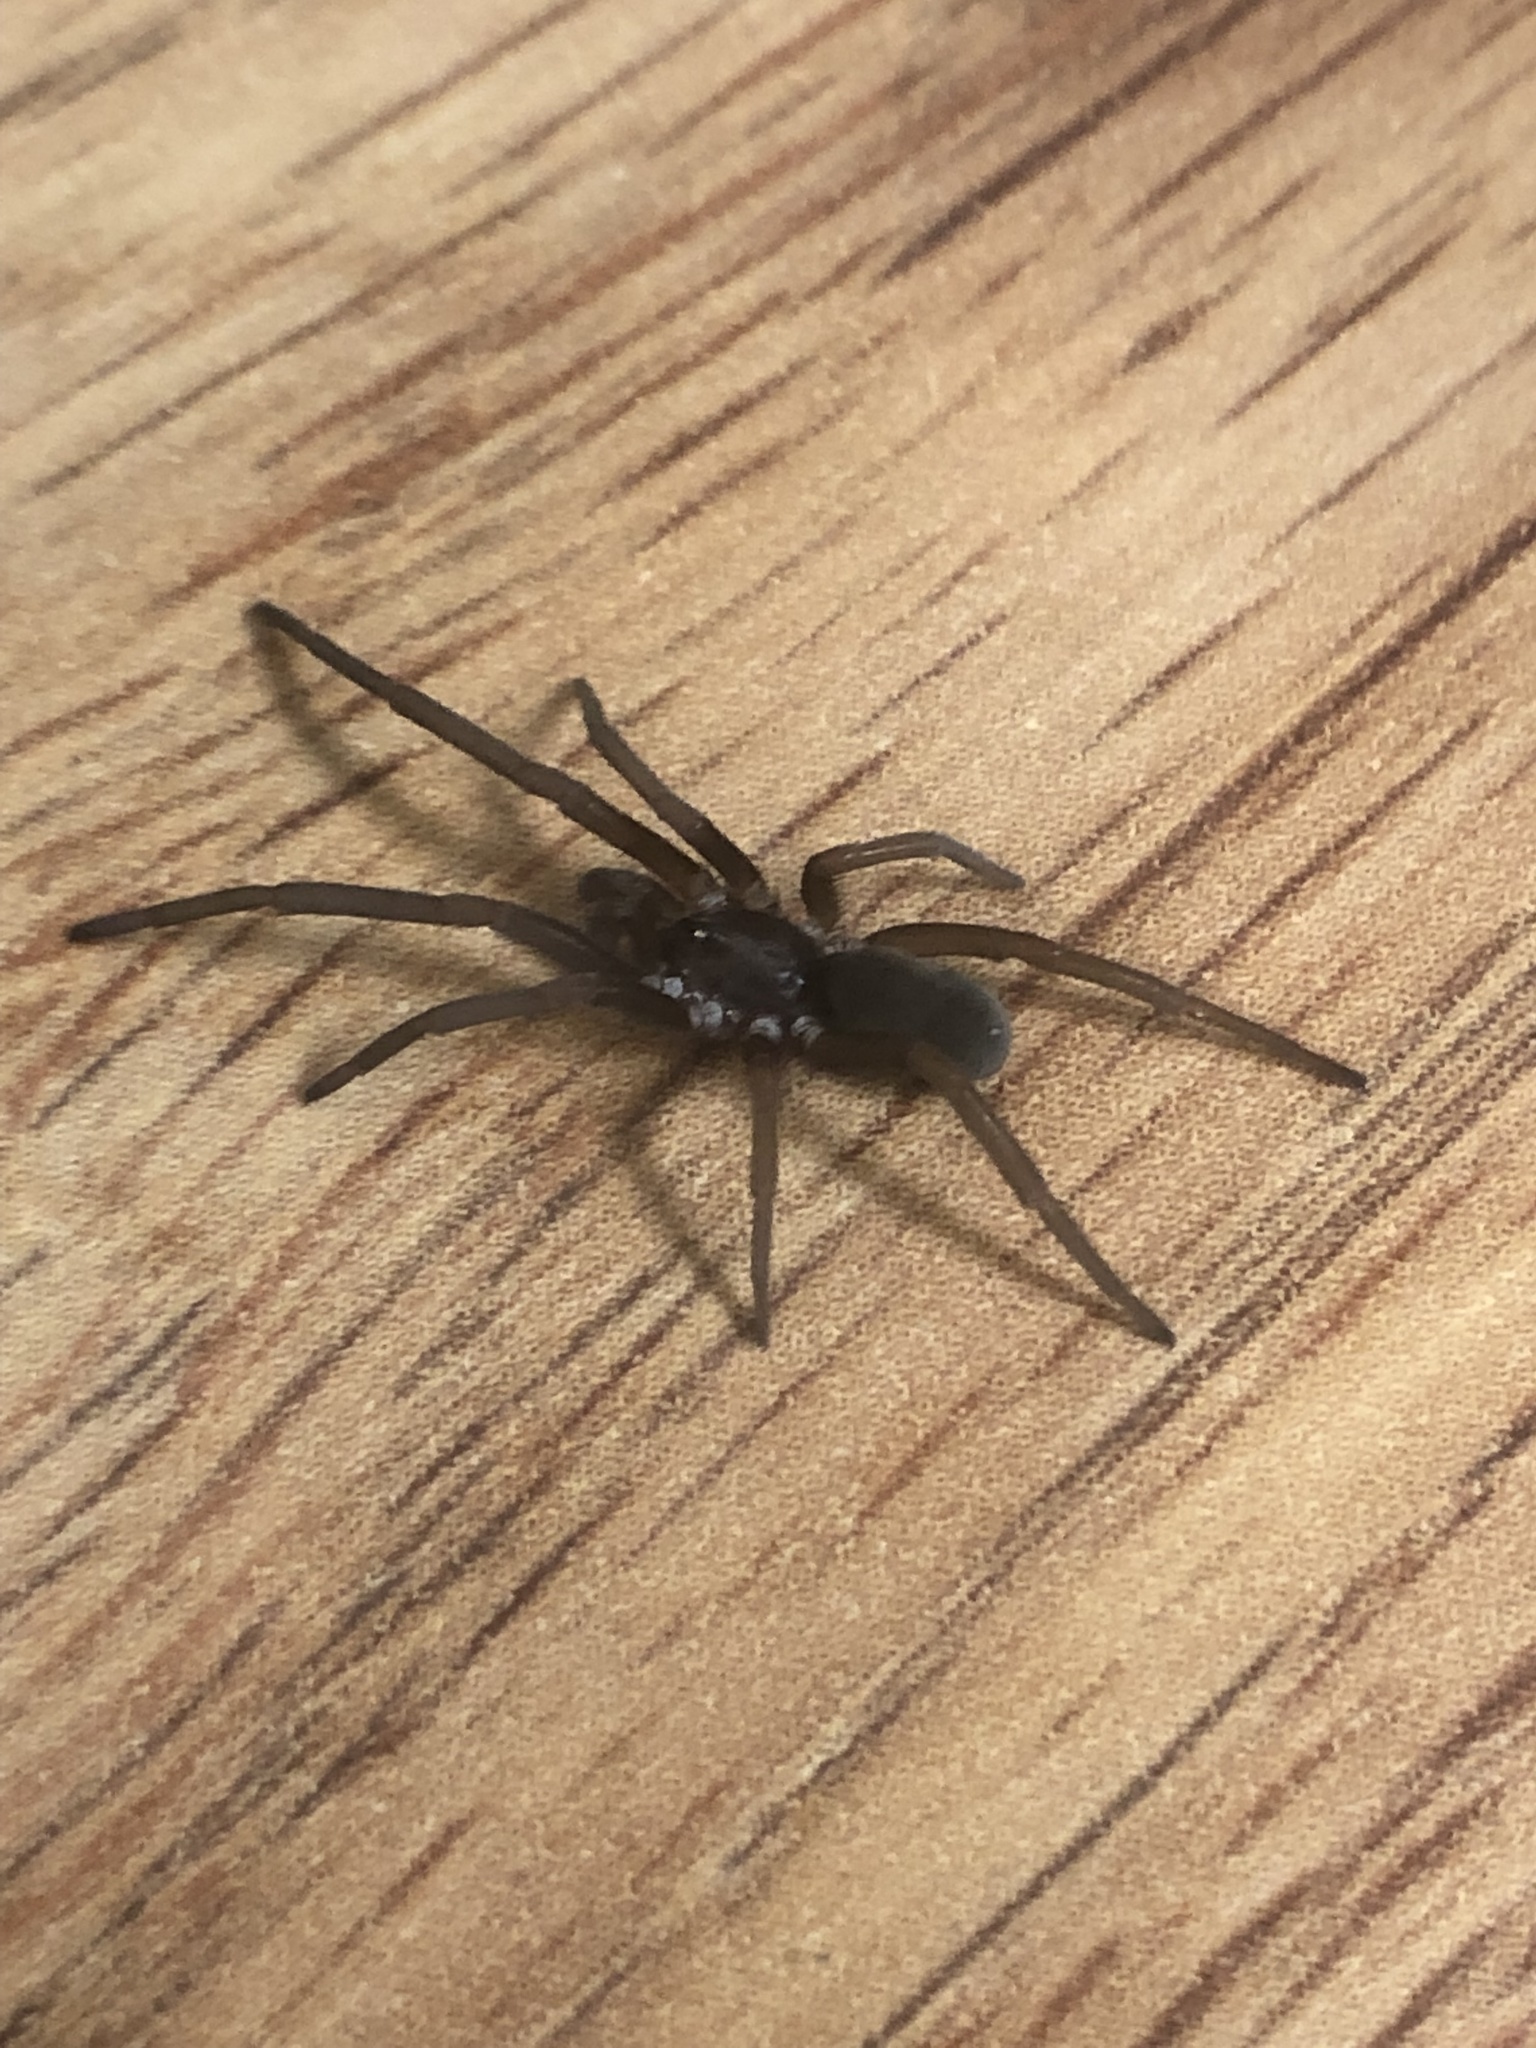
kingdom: Animalia
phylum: Arthropoda
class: Arachnida
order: Araneae
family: Filistatidae
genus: Kukulcania
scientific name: Kukulcania hibernalis
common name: Crevice weaver
